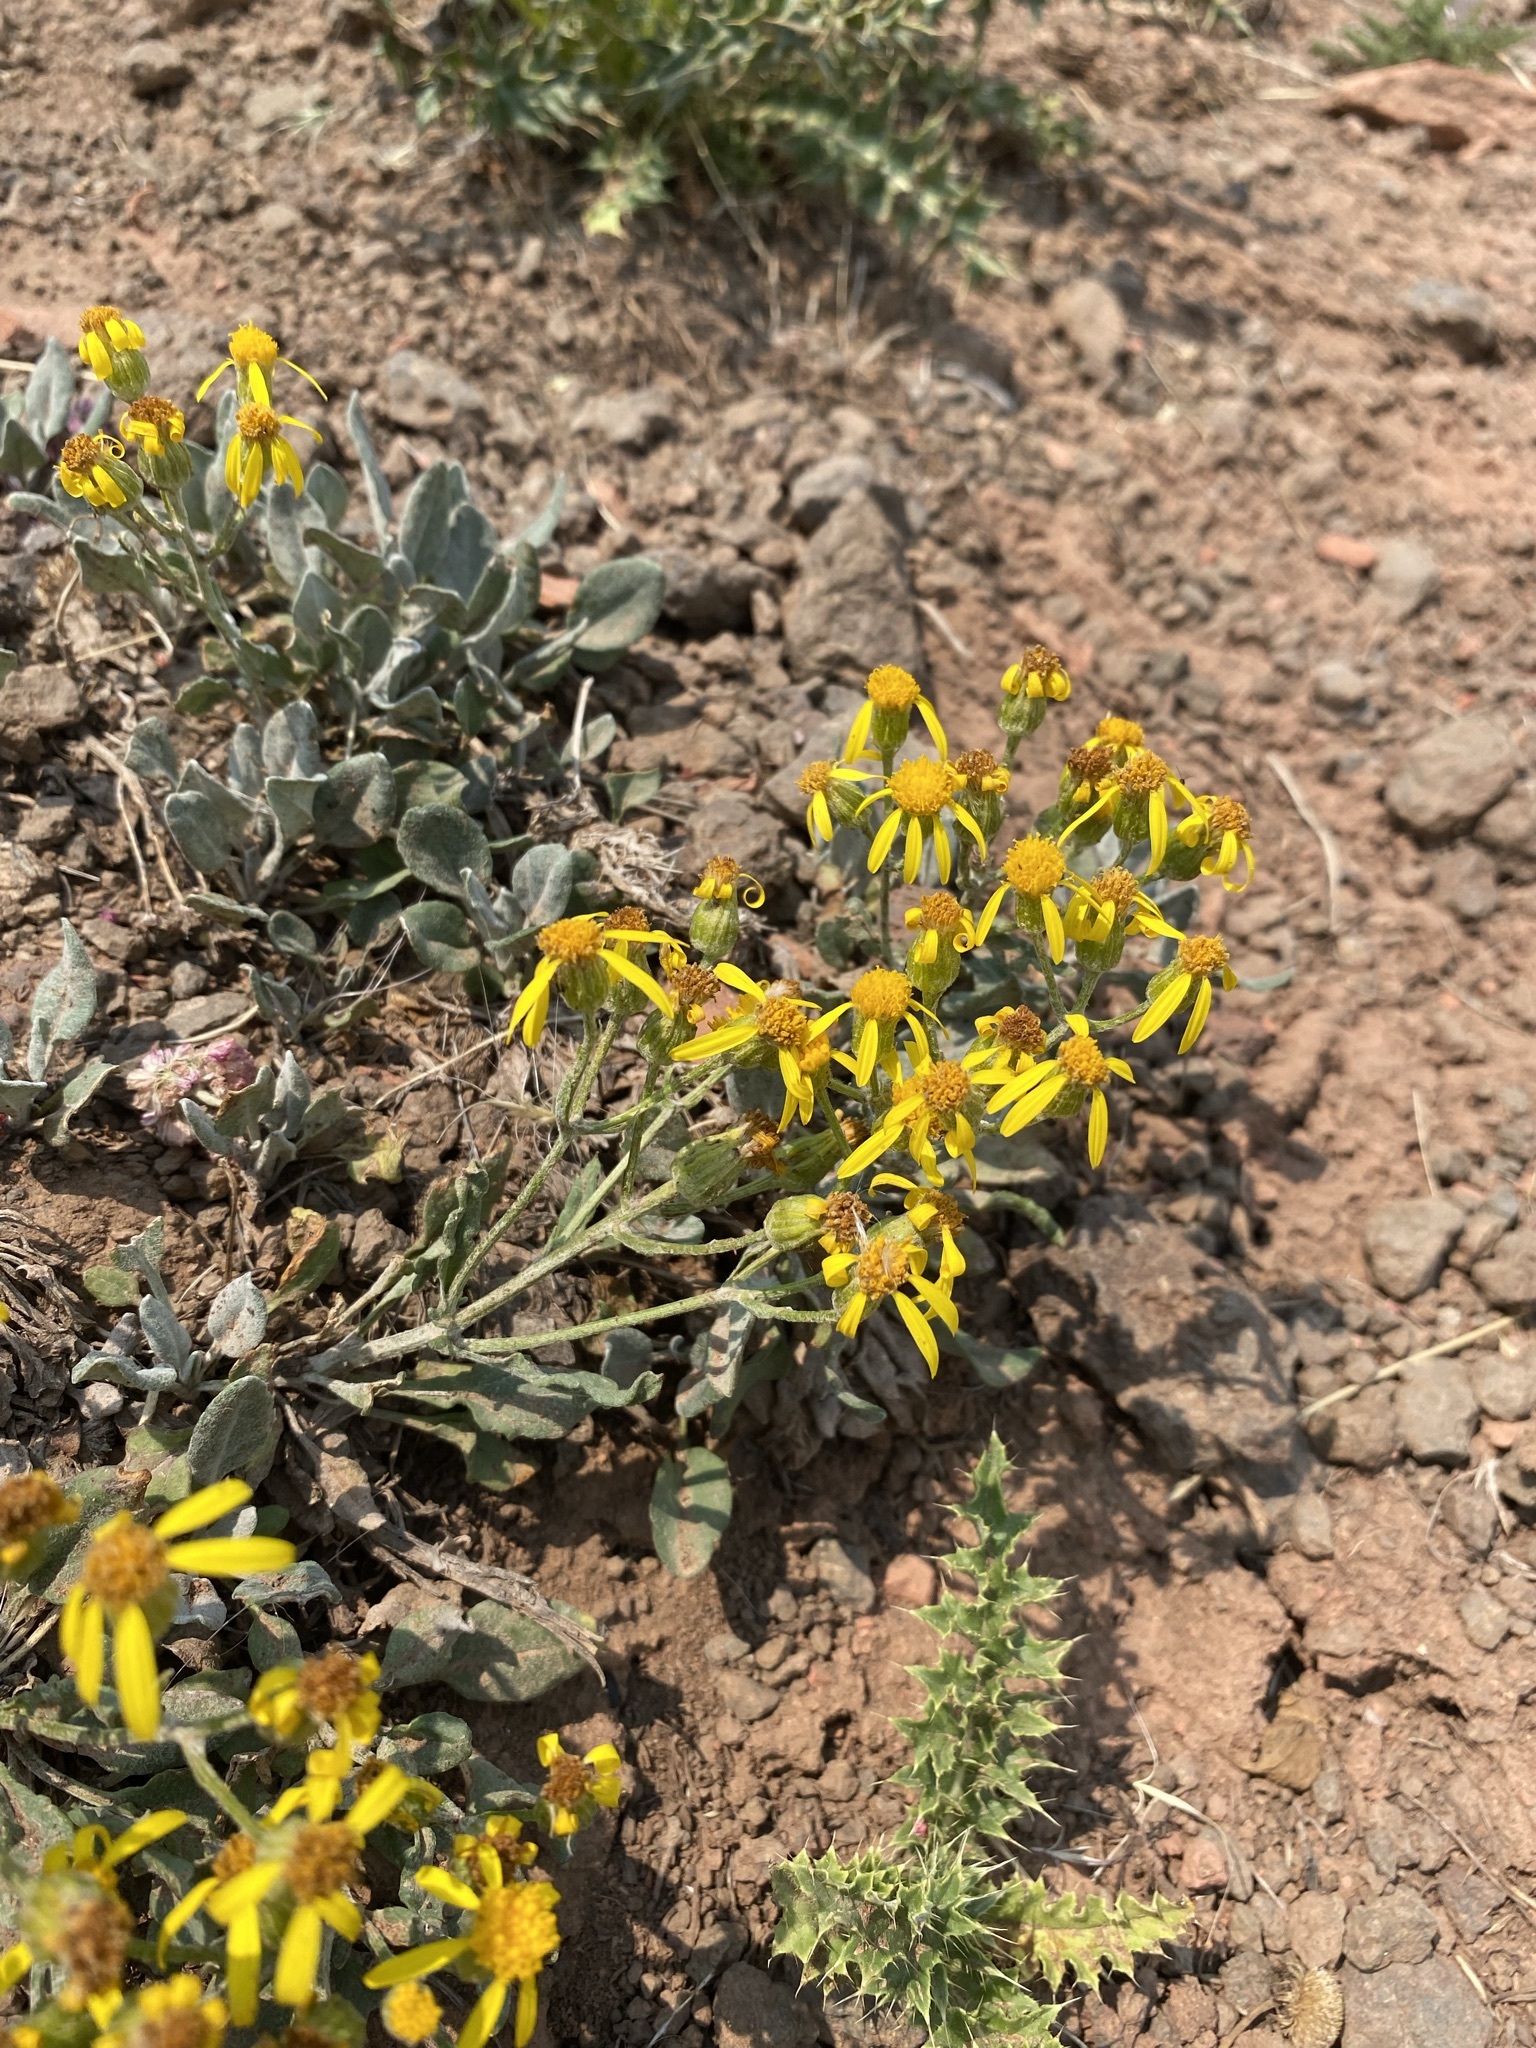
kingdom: Plantae
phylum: Tracheophyta
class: Magnoliopsida
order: Asterales
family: Asteraceae
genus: Packera
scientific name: Packera cana
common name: Woolly groundsel
